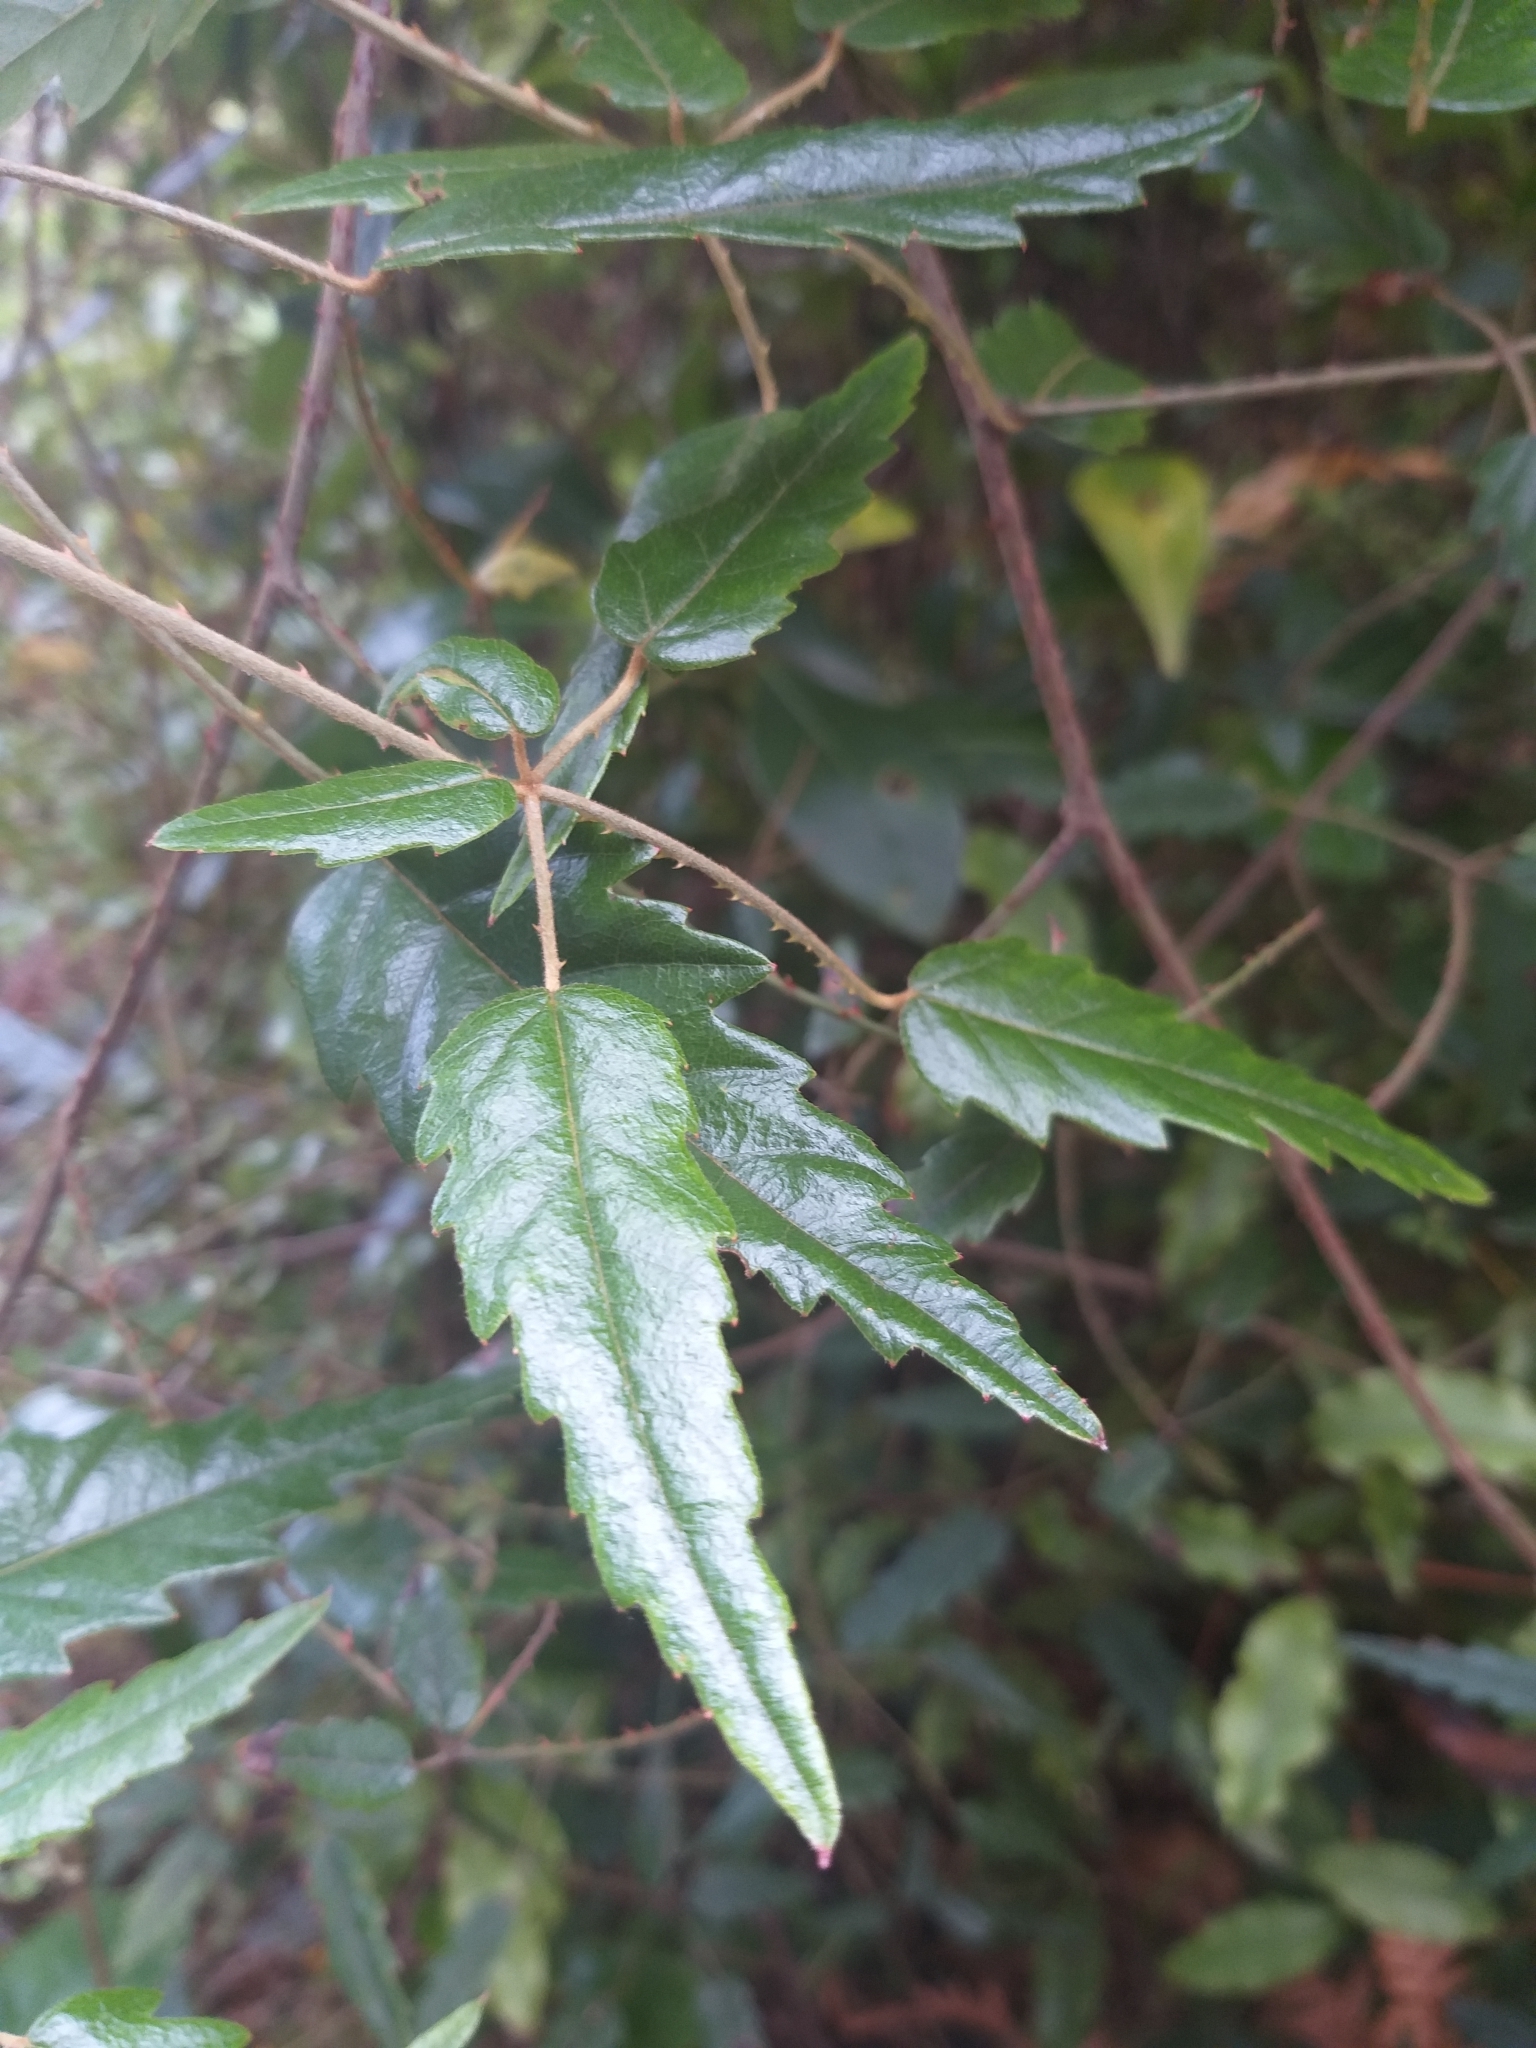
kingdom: Plantae
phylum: Tracheophyta
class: Magnoliopsida
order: Rosales
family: Rosaceae
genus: Rubus
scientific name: Rubus schmidelioides
